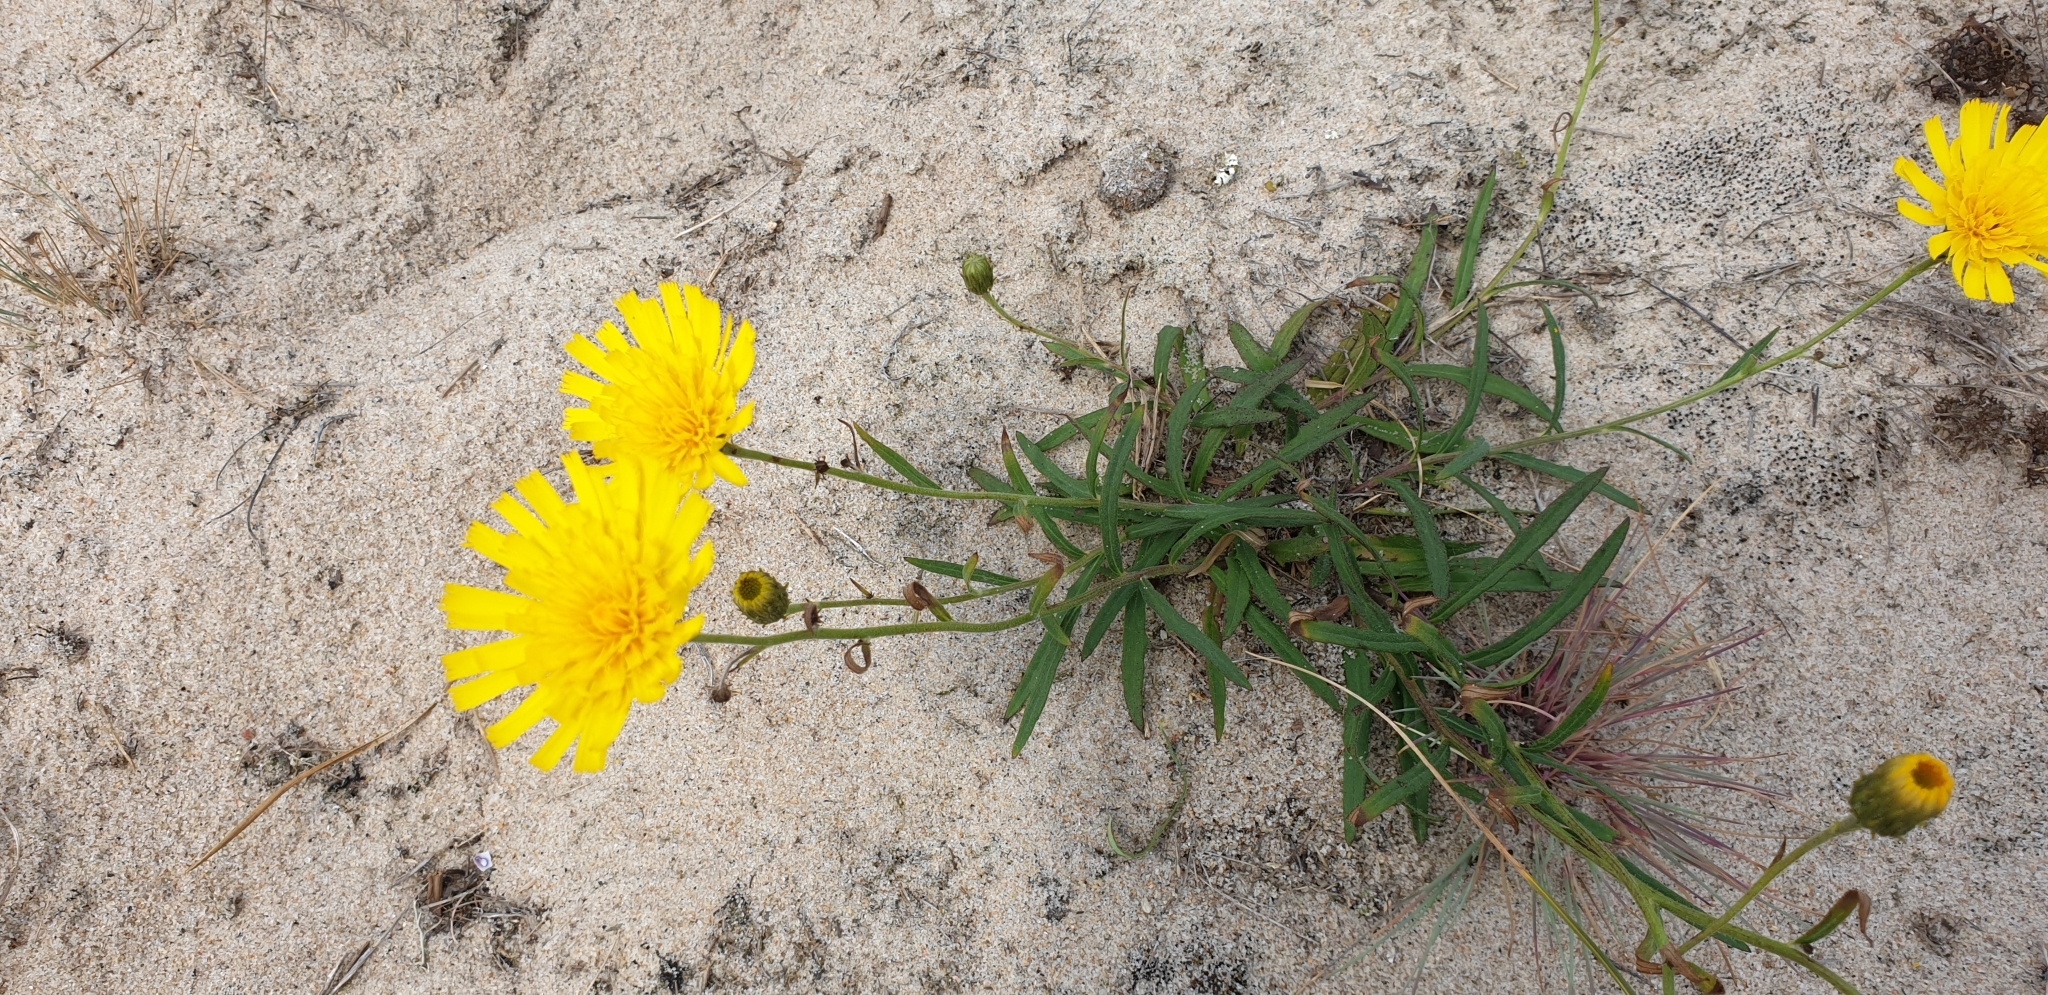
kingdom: Plantae
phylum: Tracheophyta
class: Magnoliopsida
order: Asterales
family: Asteraceae
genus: Hieracium
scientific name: Hieracium umbellatum
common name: Northern hawkweed
